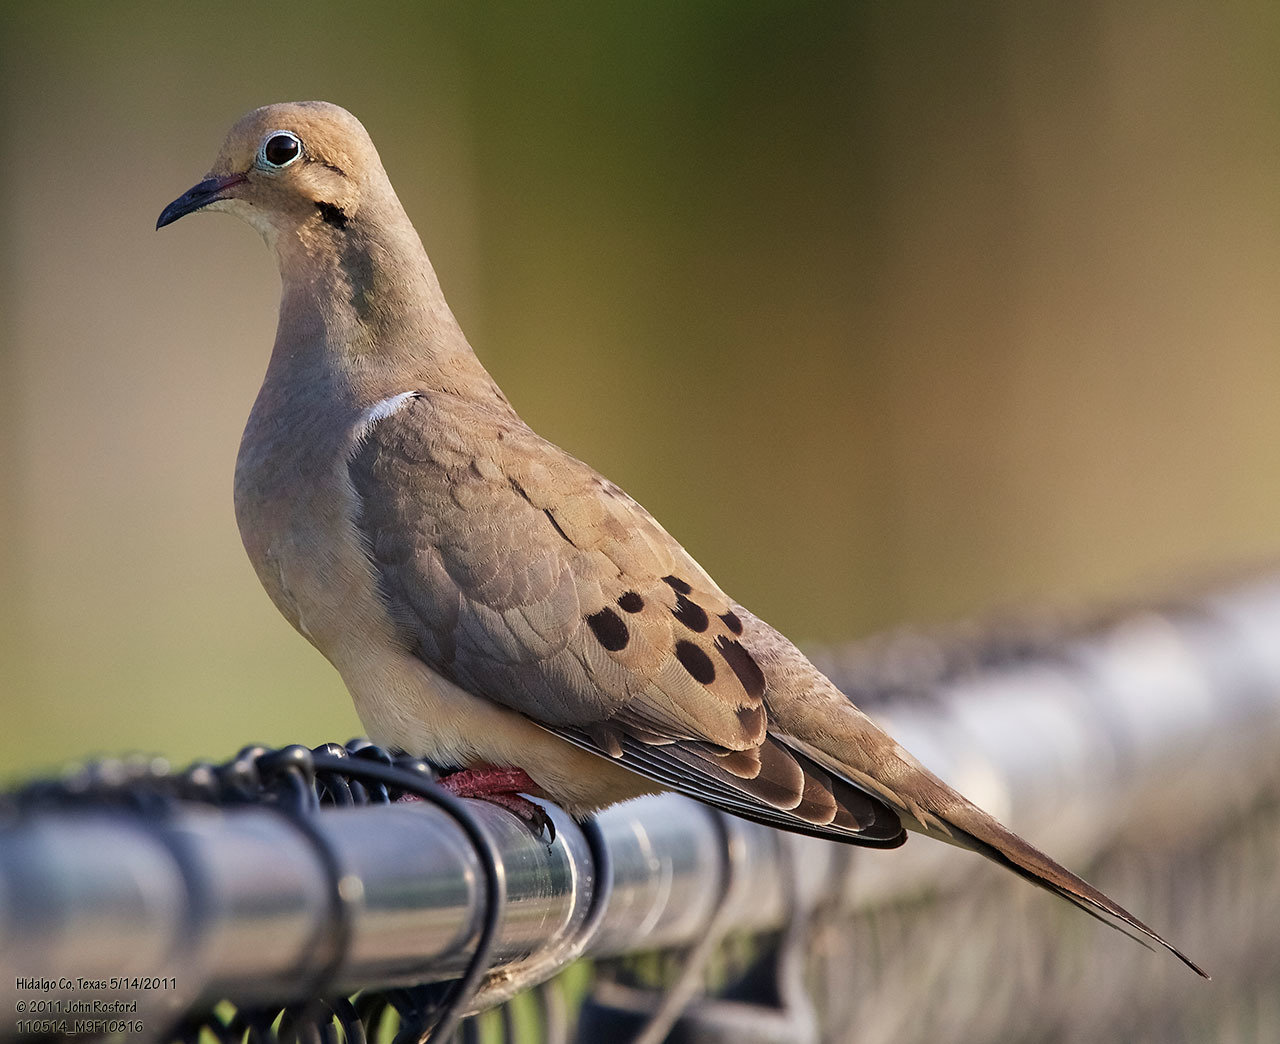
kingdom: Animalia
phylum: Chordata
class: Aves
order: Columbiformes
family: Columbidae
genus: Zenaida
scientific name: Zenaida macroura
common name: Mourning dove
